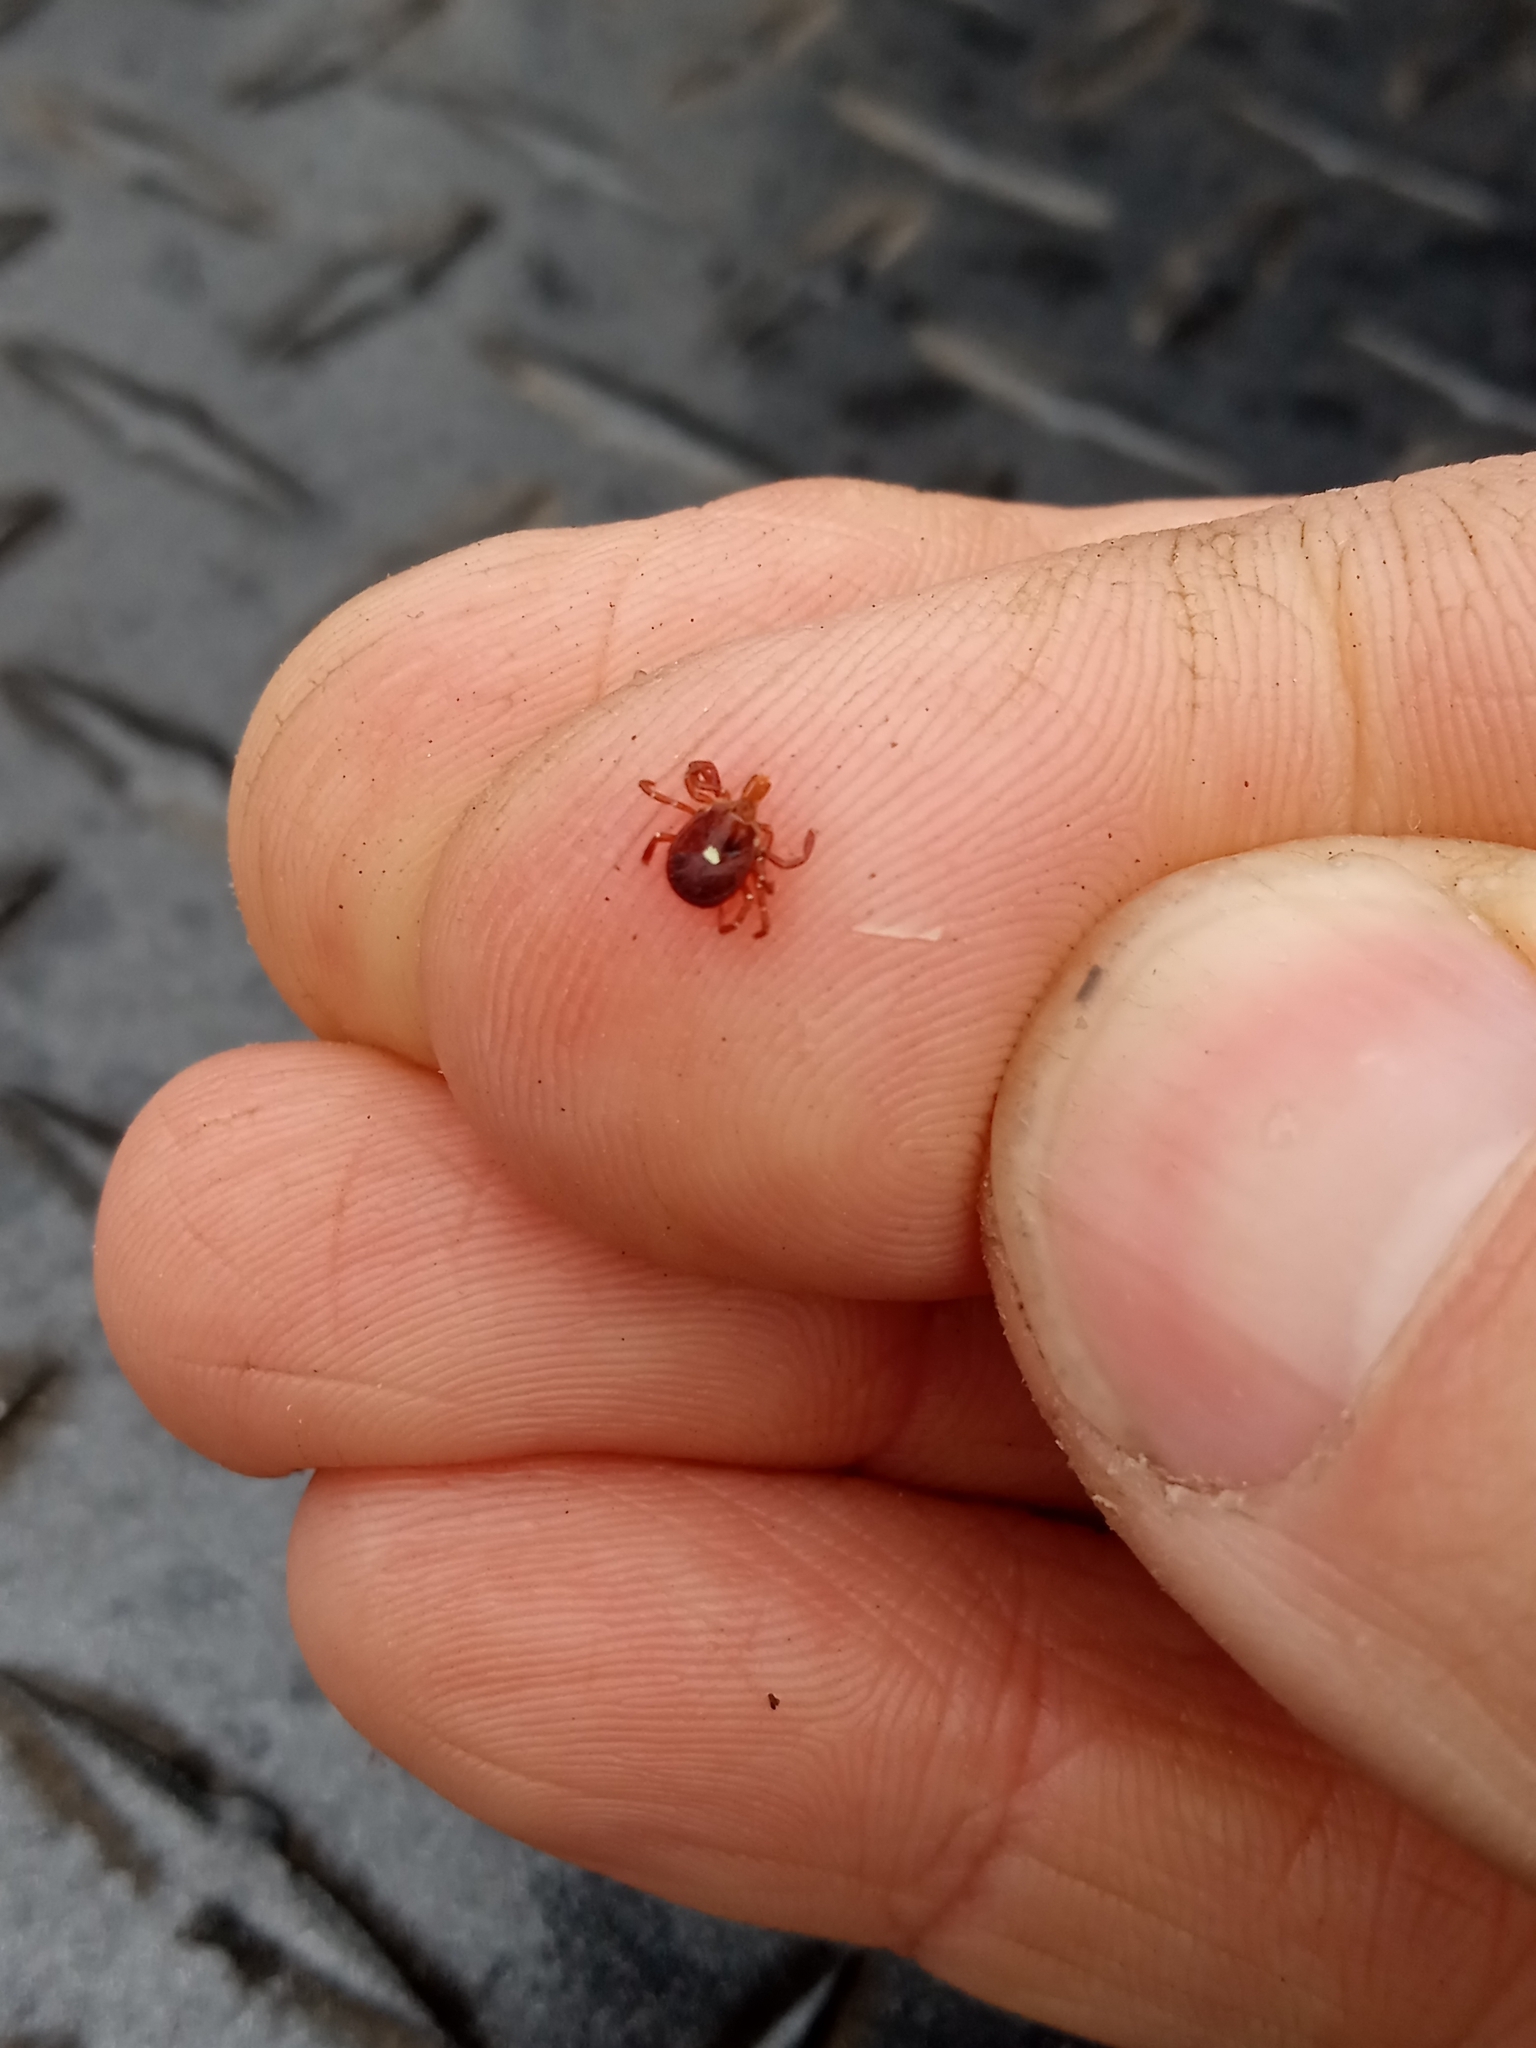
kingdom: Animalia
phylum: Arthropoda
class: Arachnida
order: Ixodida
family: Ixodidae
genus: Amblyomma
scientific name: Amblyomma americanum
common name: Lone star tick
